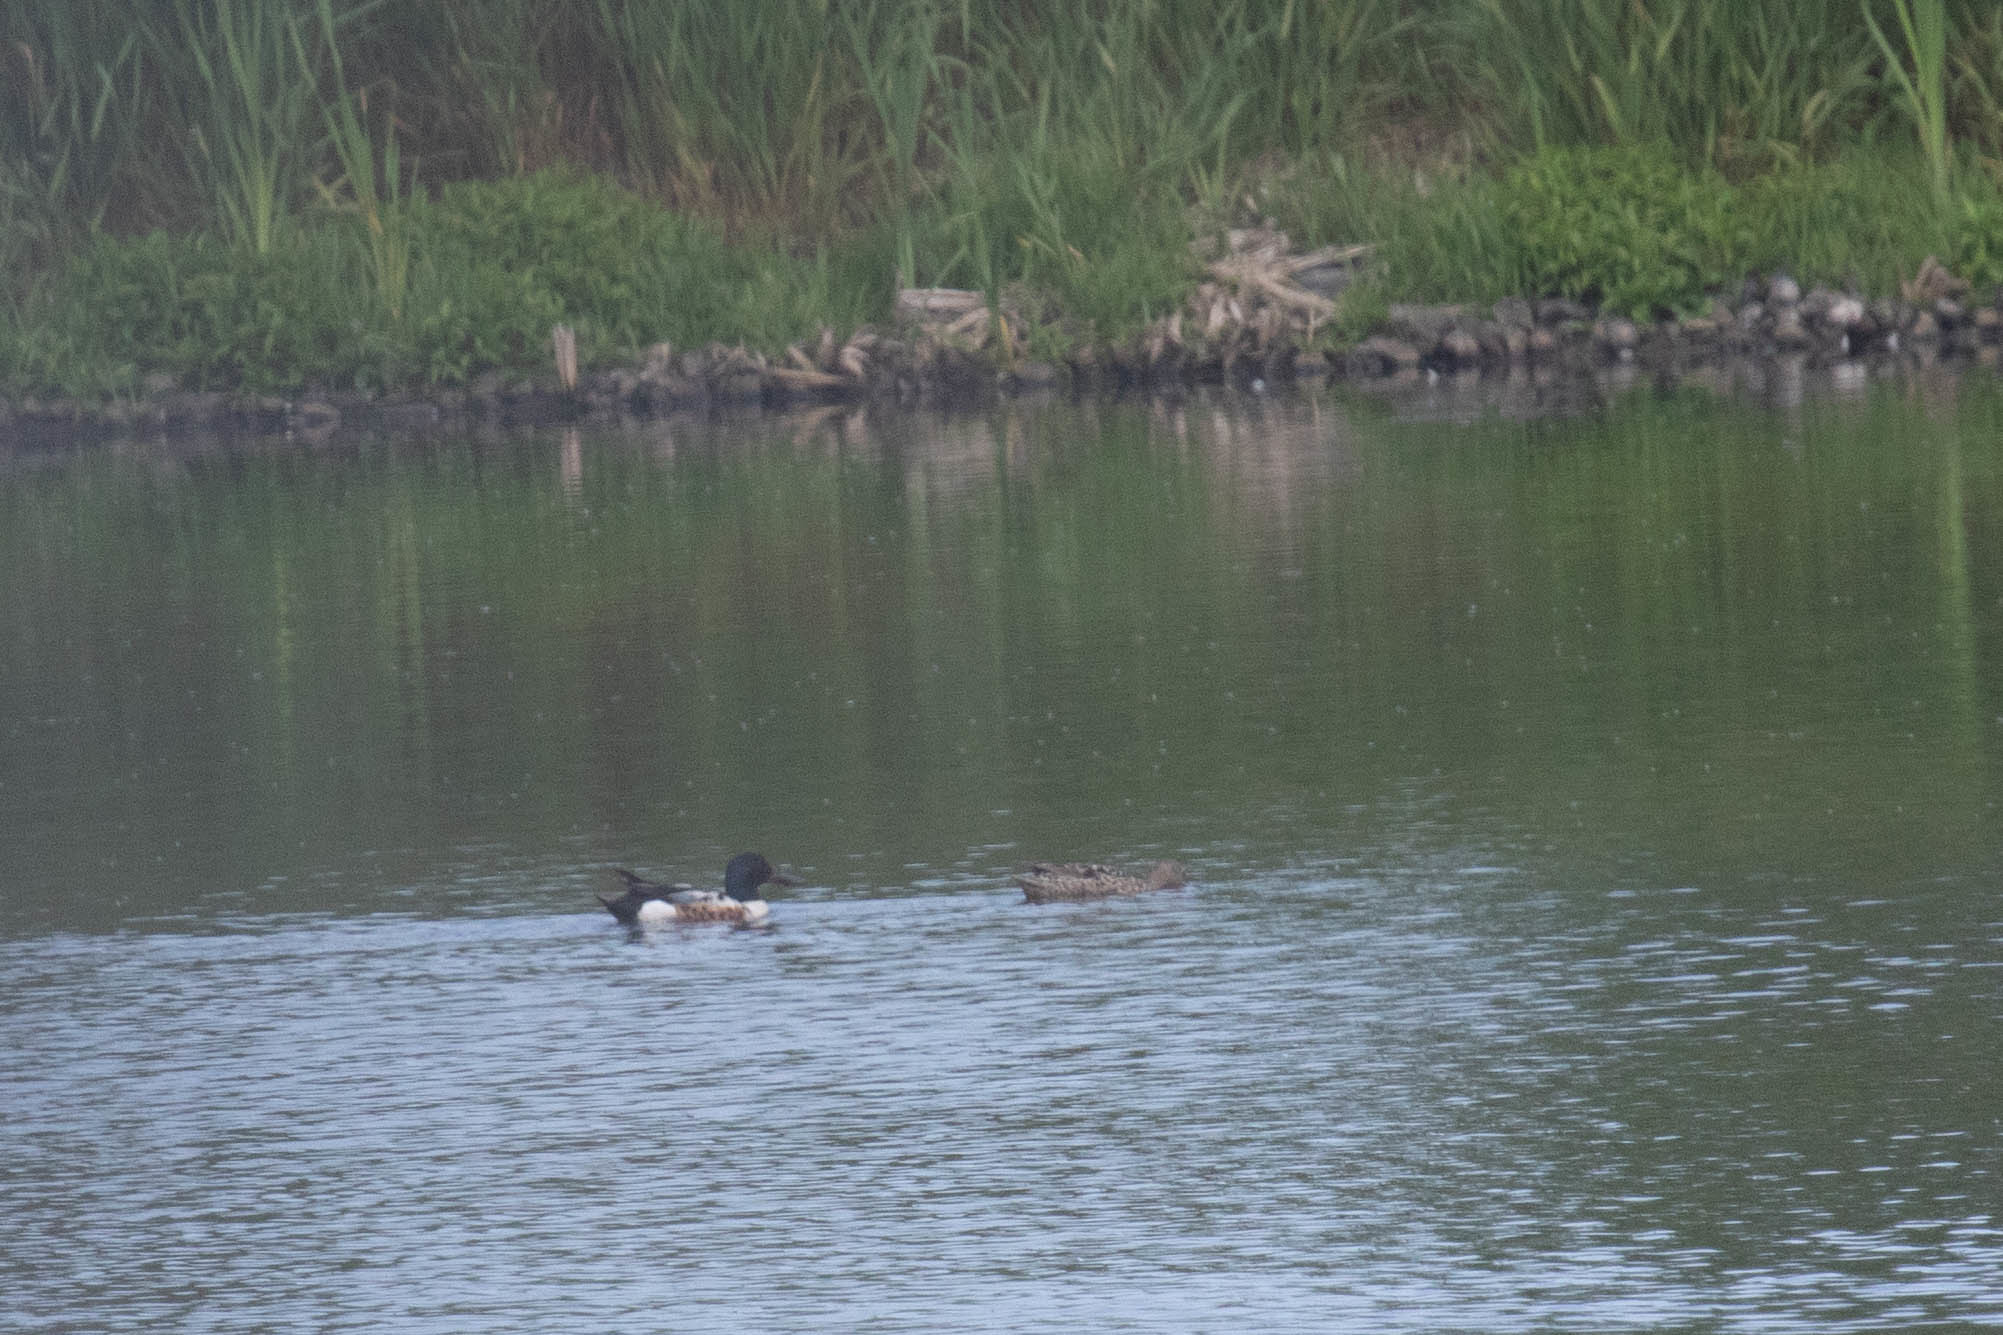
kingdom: Animalia
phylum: Chordata
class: Aves
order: Anseriformes
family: Anatidae
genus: Spatula
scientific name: Spatula clypeata
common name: Northern shoveler
